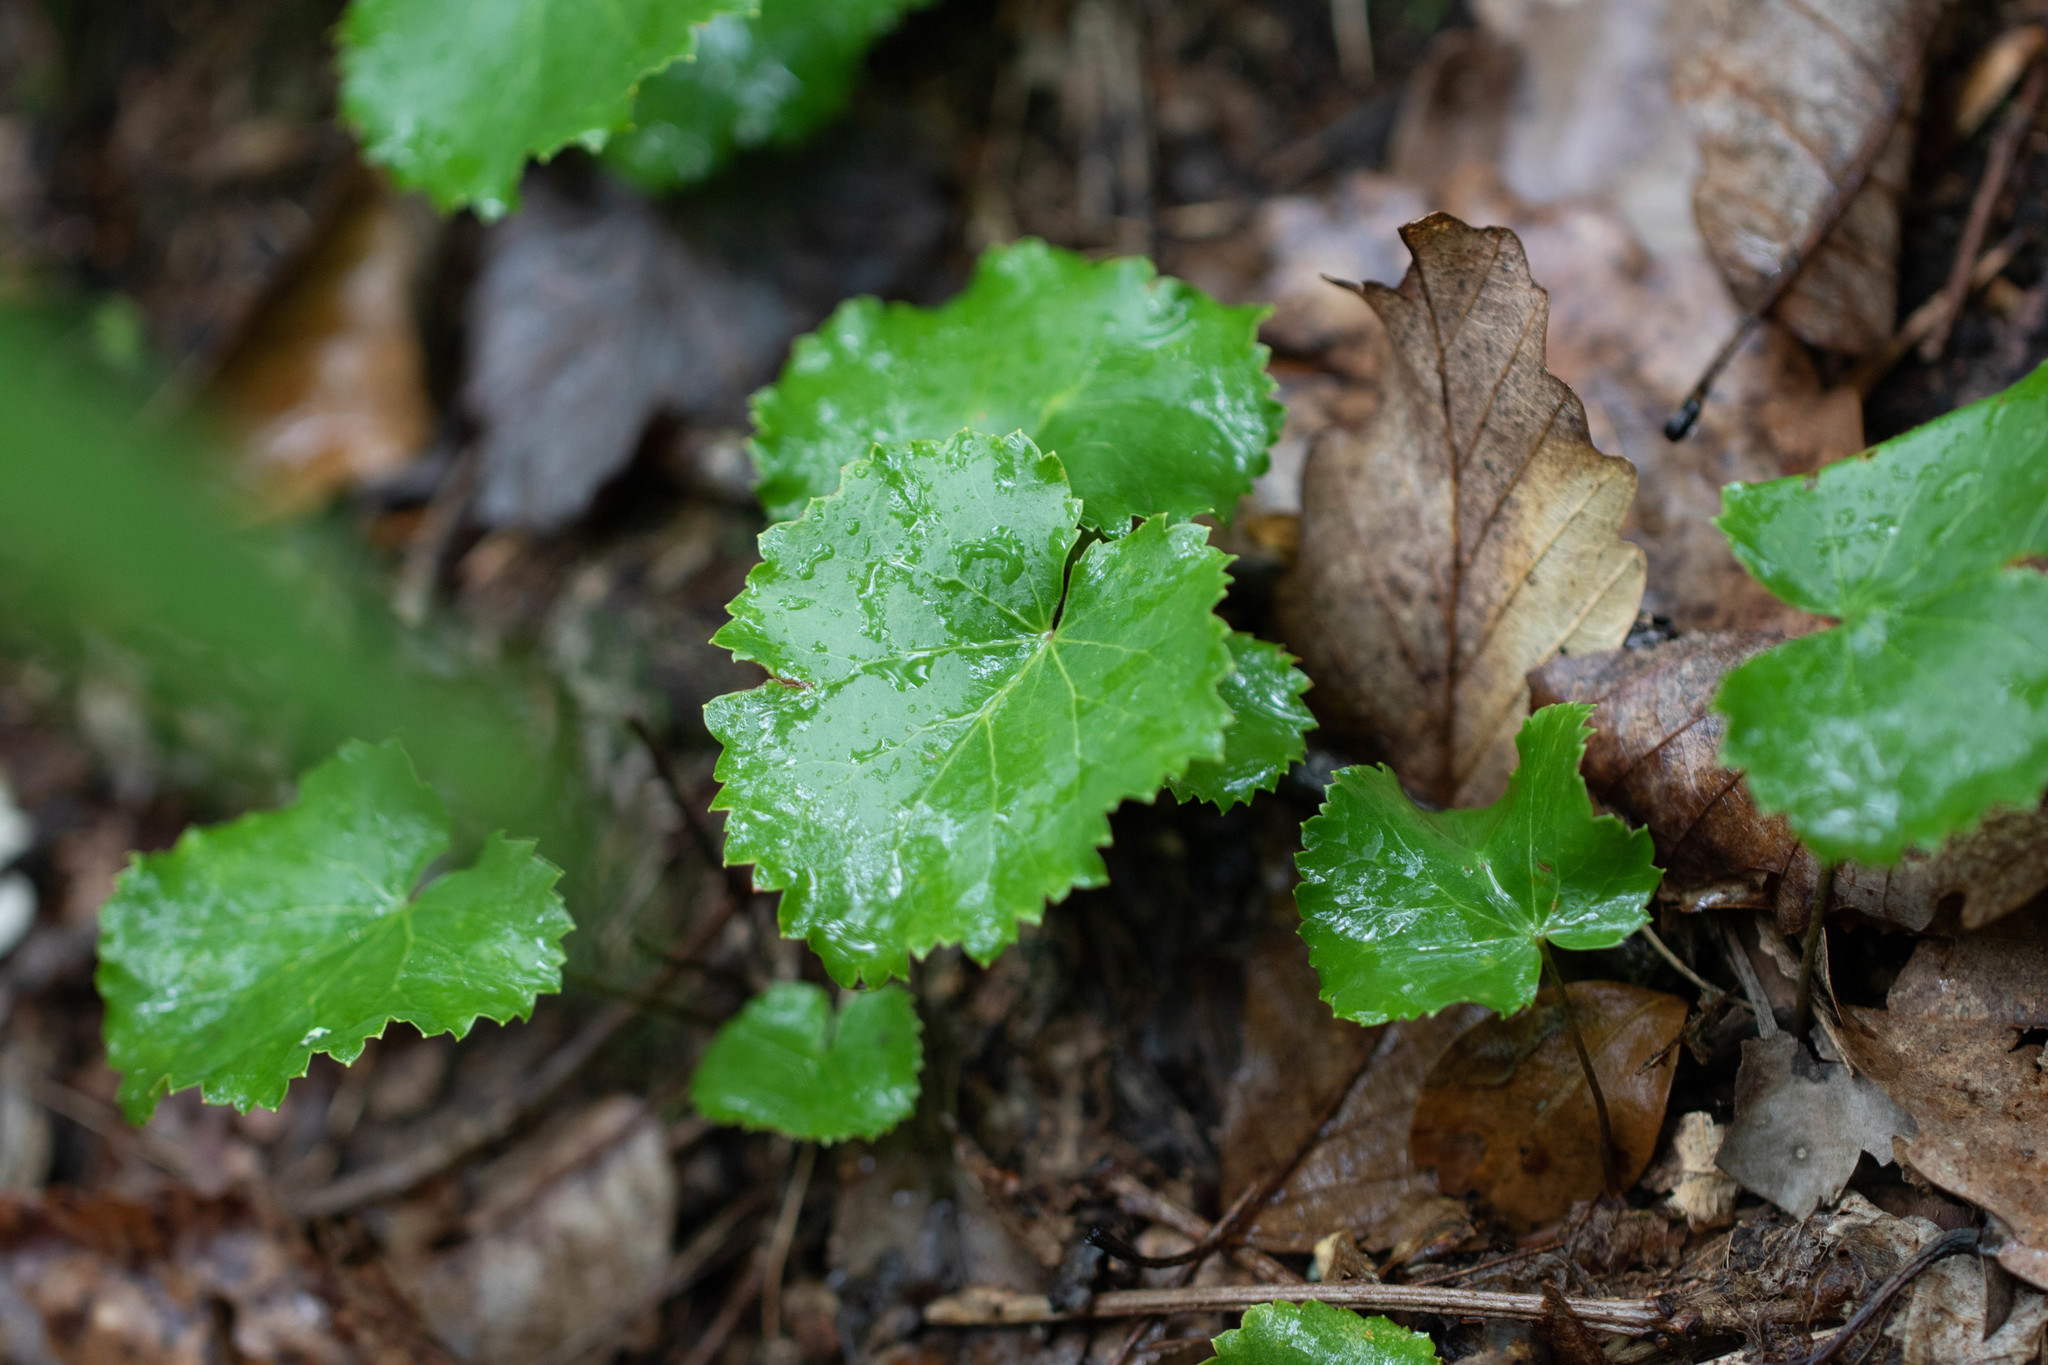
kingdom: Plantae
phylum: Tracheophyta
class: Magnoliopsida
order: Ericales
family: Diapensiaceae
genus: Galax
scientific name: Galax urceolata
